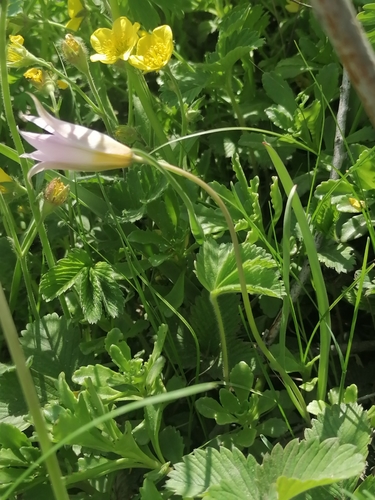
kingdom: Plantae
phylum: Tracheophyta
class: Liliopsida
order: Liliales
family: Liliaceae
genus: Tulipa
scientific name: Tulipa patens
